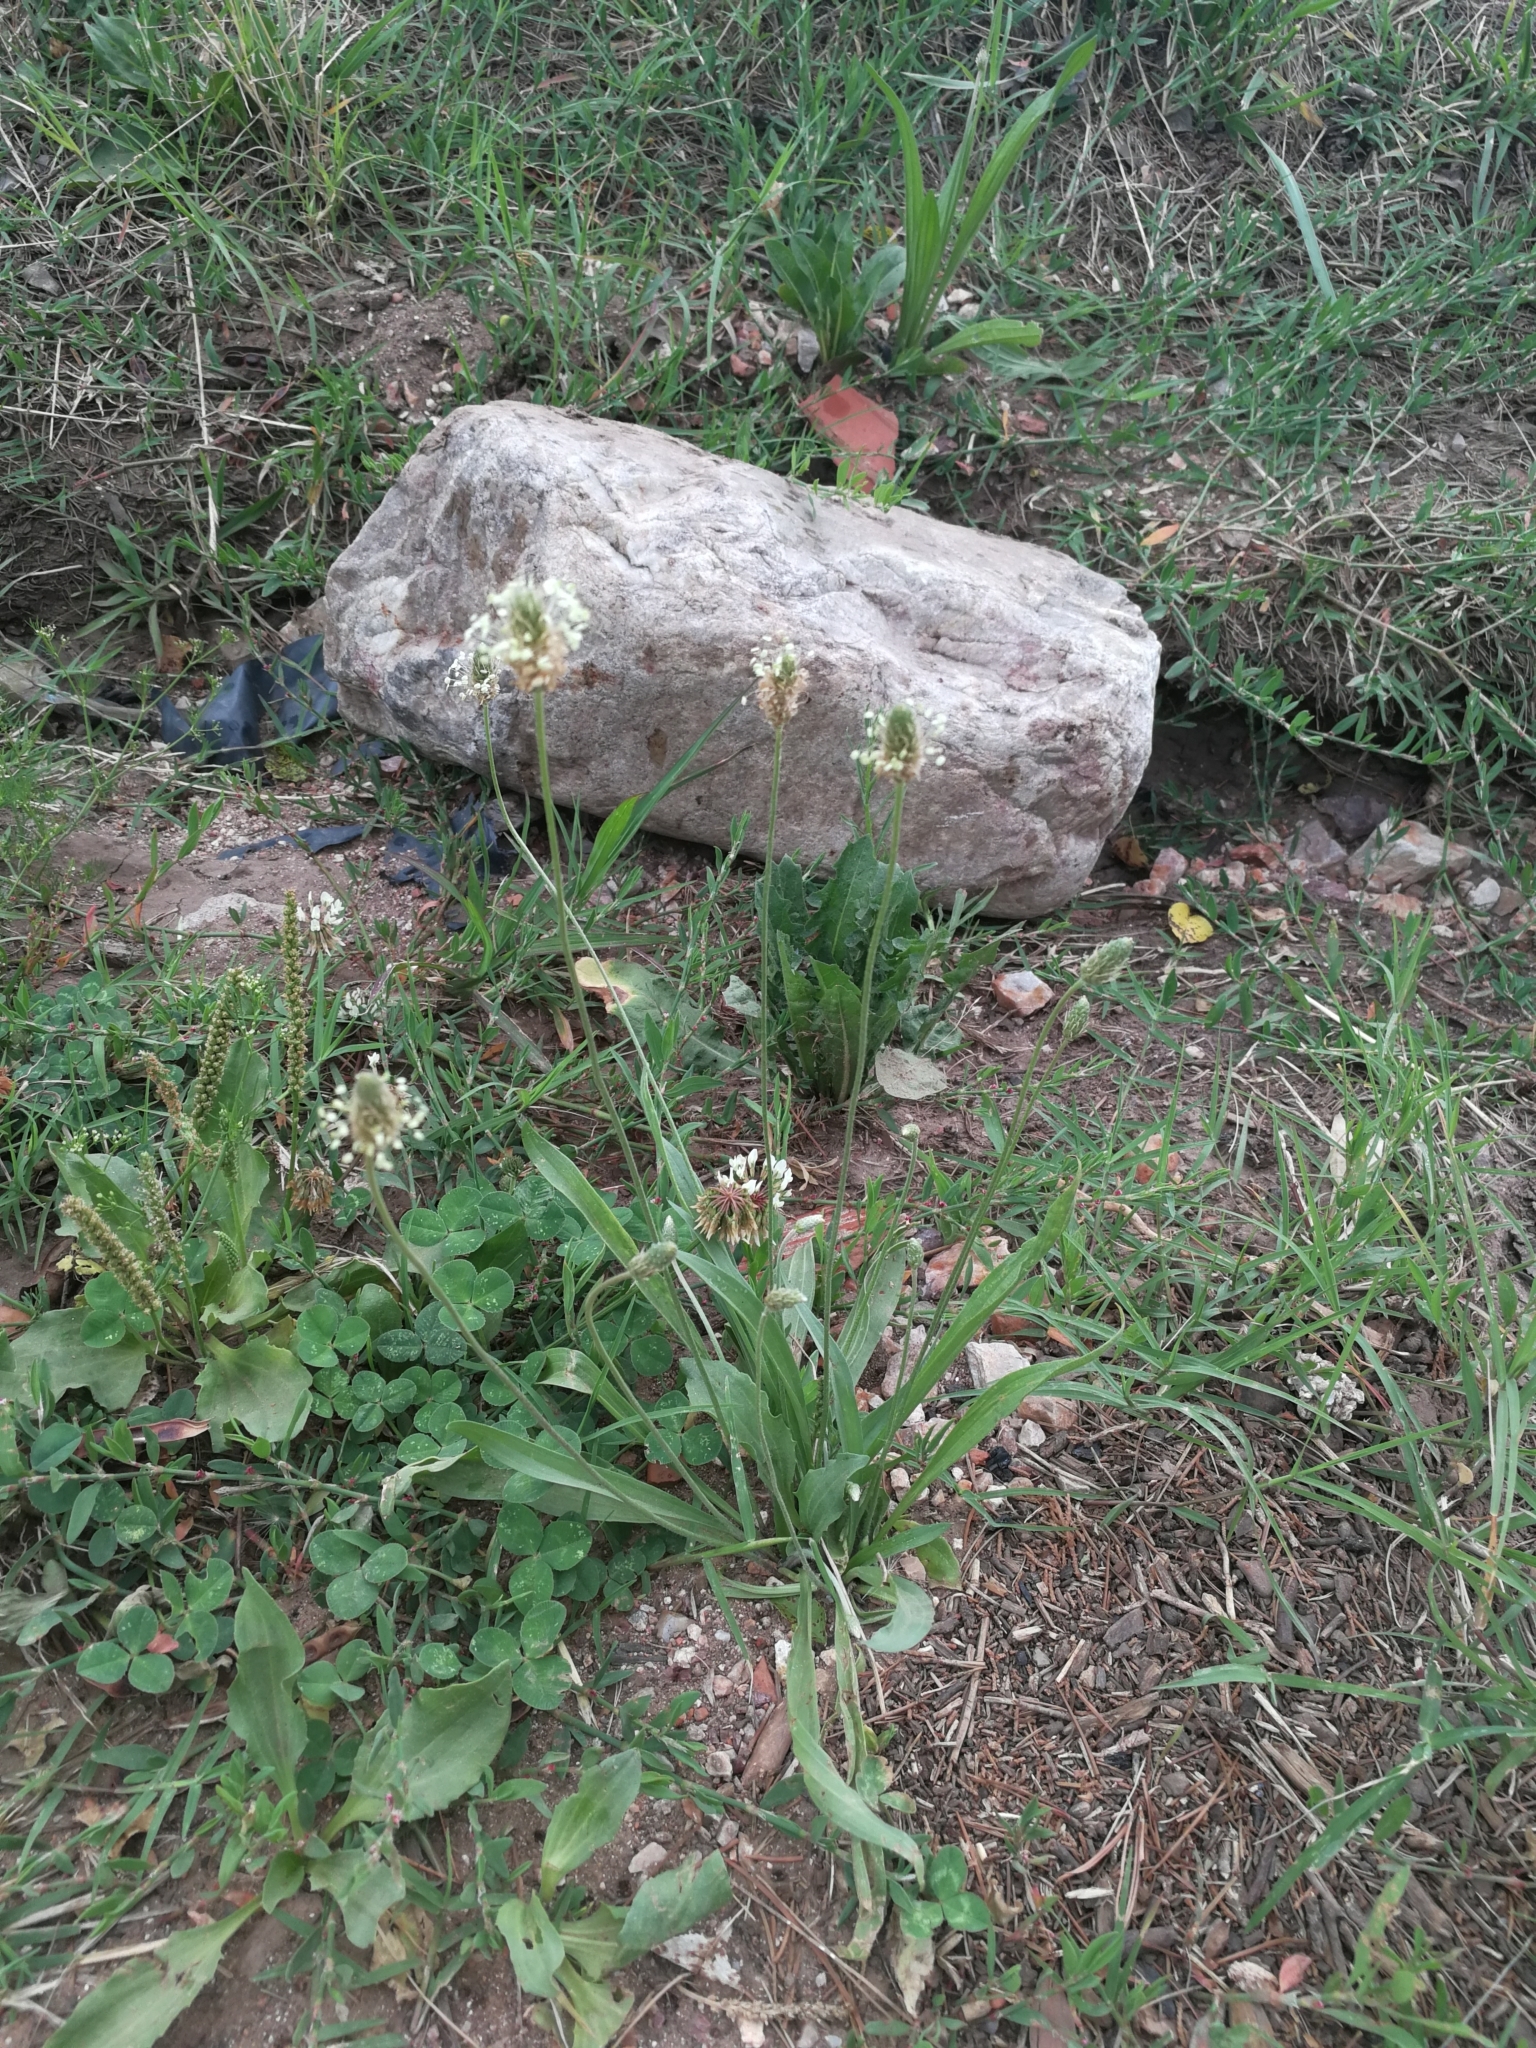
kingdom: Plantae
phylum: Tracheophyta
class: Magnoliopsida
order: Lamiales
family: Plantaginaceae
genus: Plantago
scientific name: Plantago lanceolata
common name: Ribwort plantain
